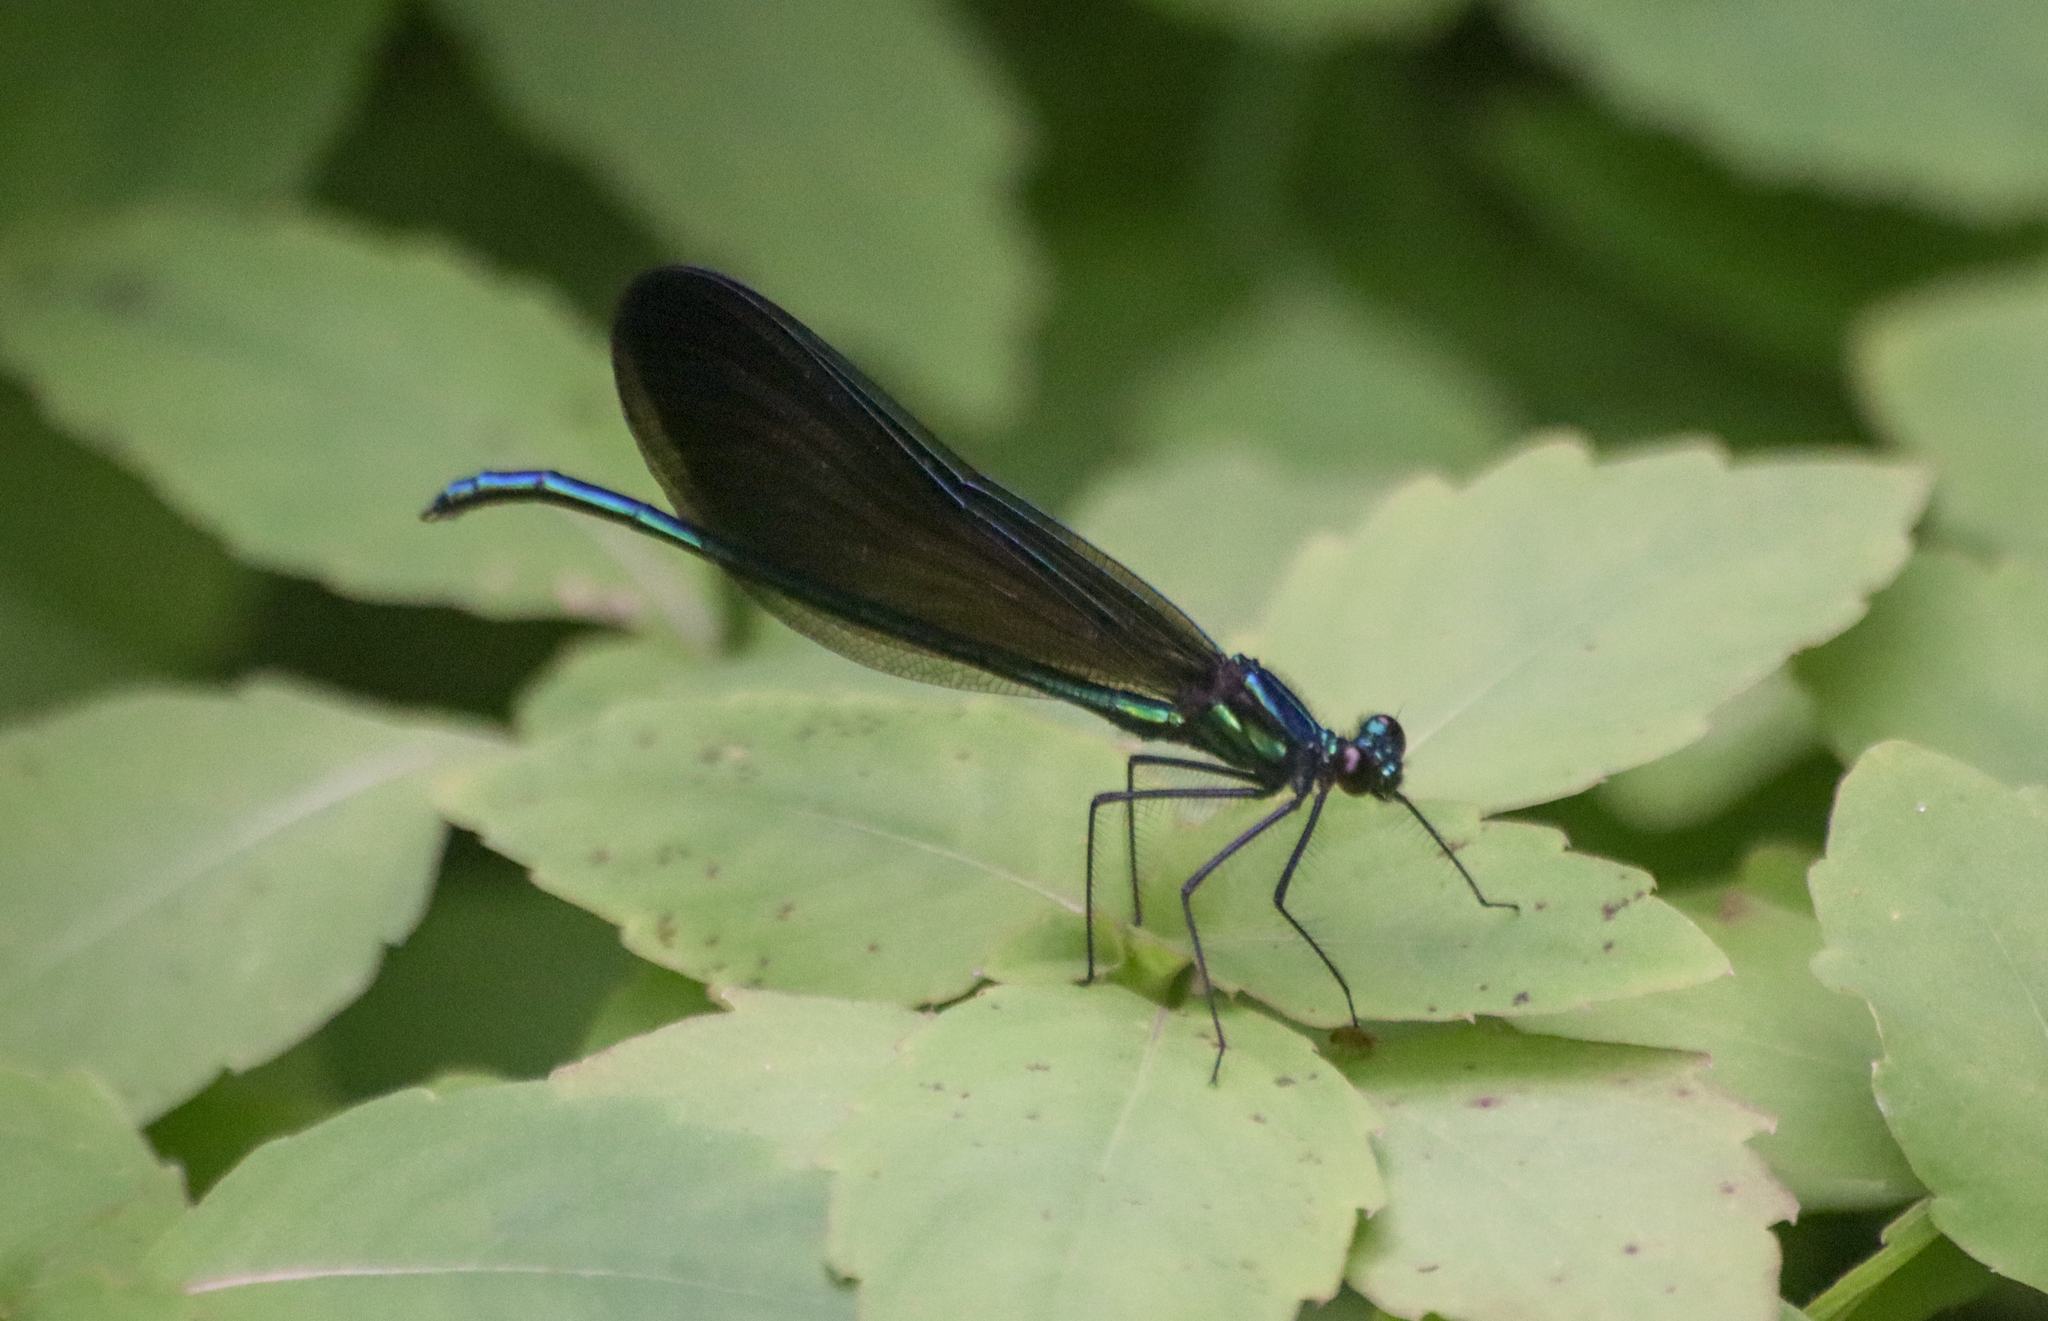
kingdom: Animalia
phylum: Arthropoda
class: Insecta
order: Odonata
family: Calopterygidae
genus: Calopteryx
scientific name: Calopteryx maculata
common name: Ebony jewelwing
